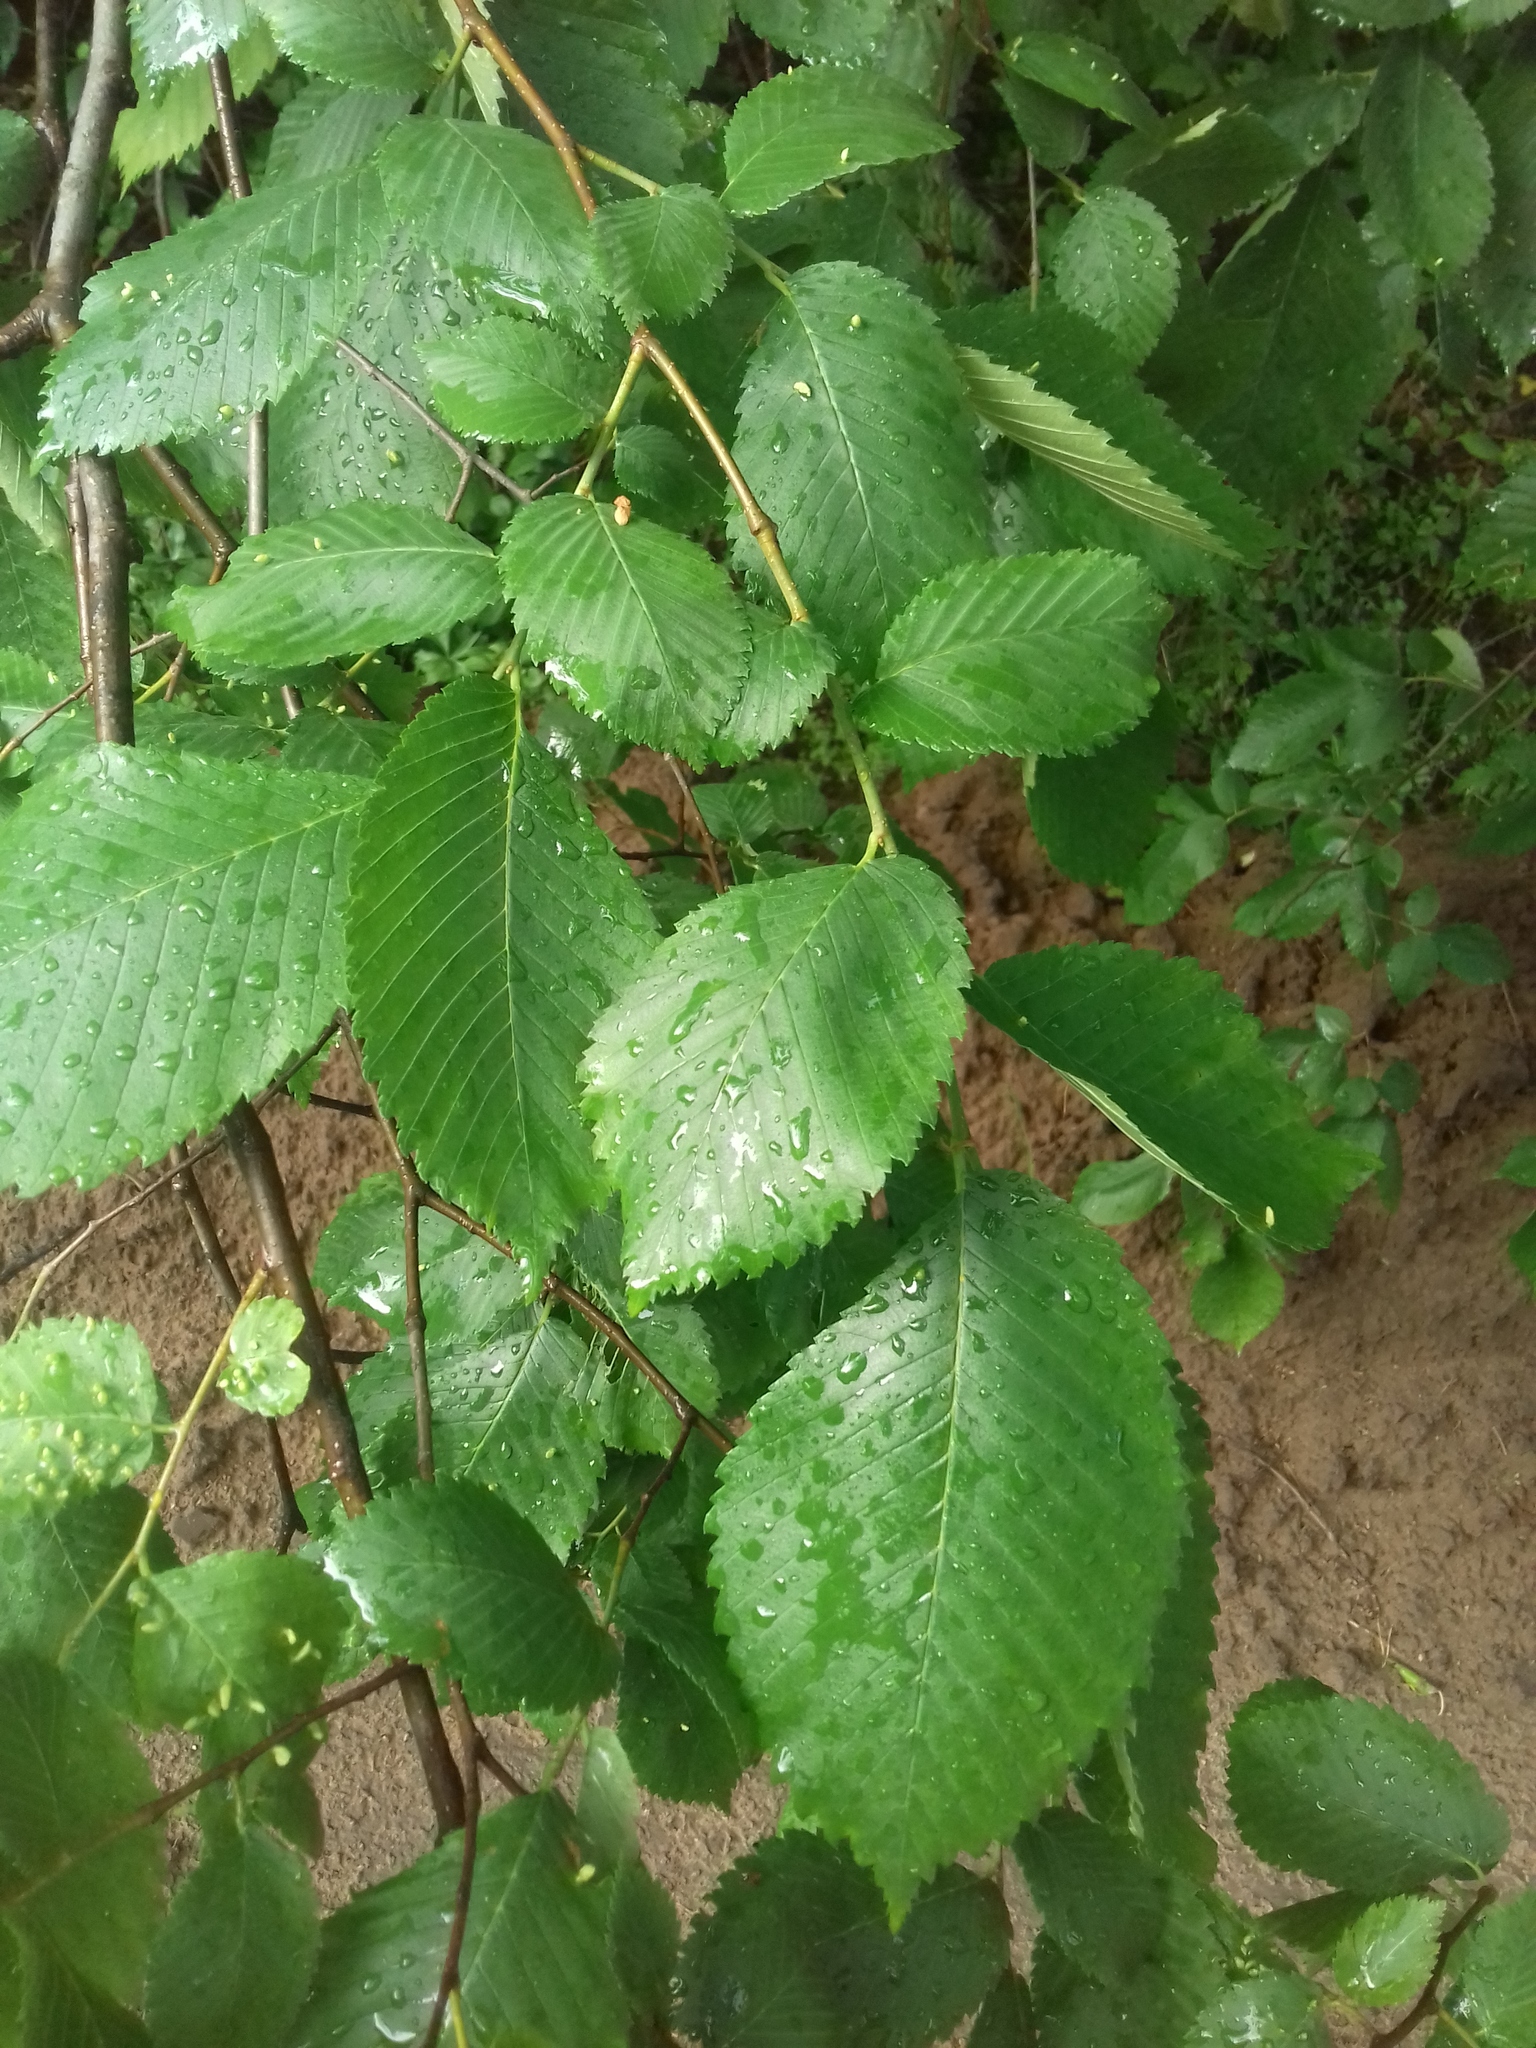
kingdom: Plantae
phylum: Tracheophyta
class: Magnoliopsida
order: Rosales
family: Ulmaceae
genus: Ulmus
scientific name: Ulmus laevis
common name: European white-elm
